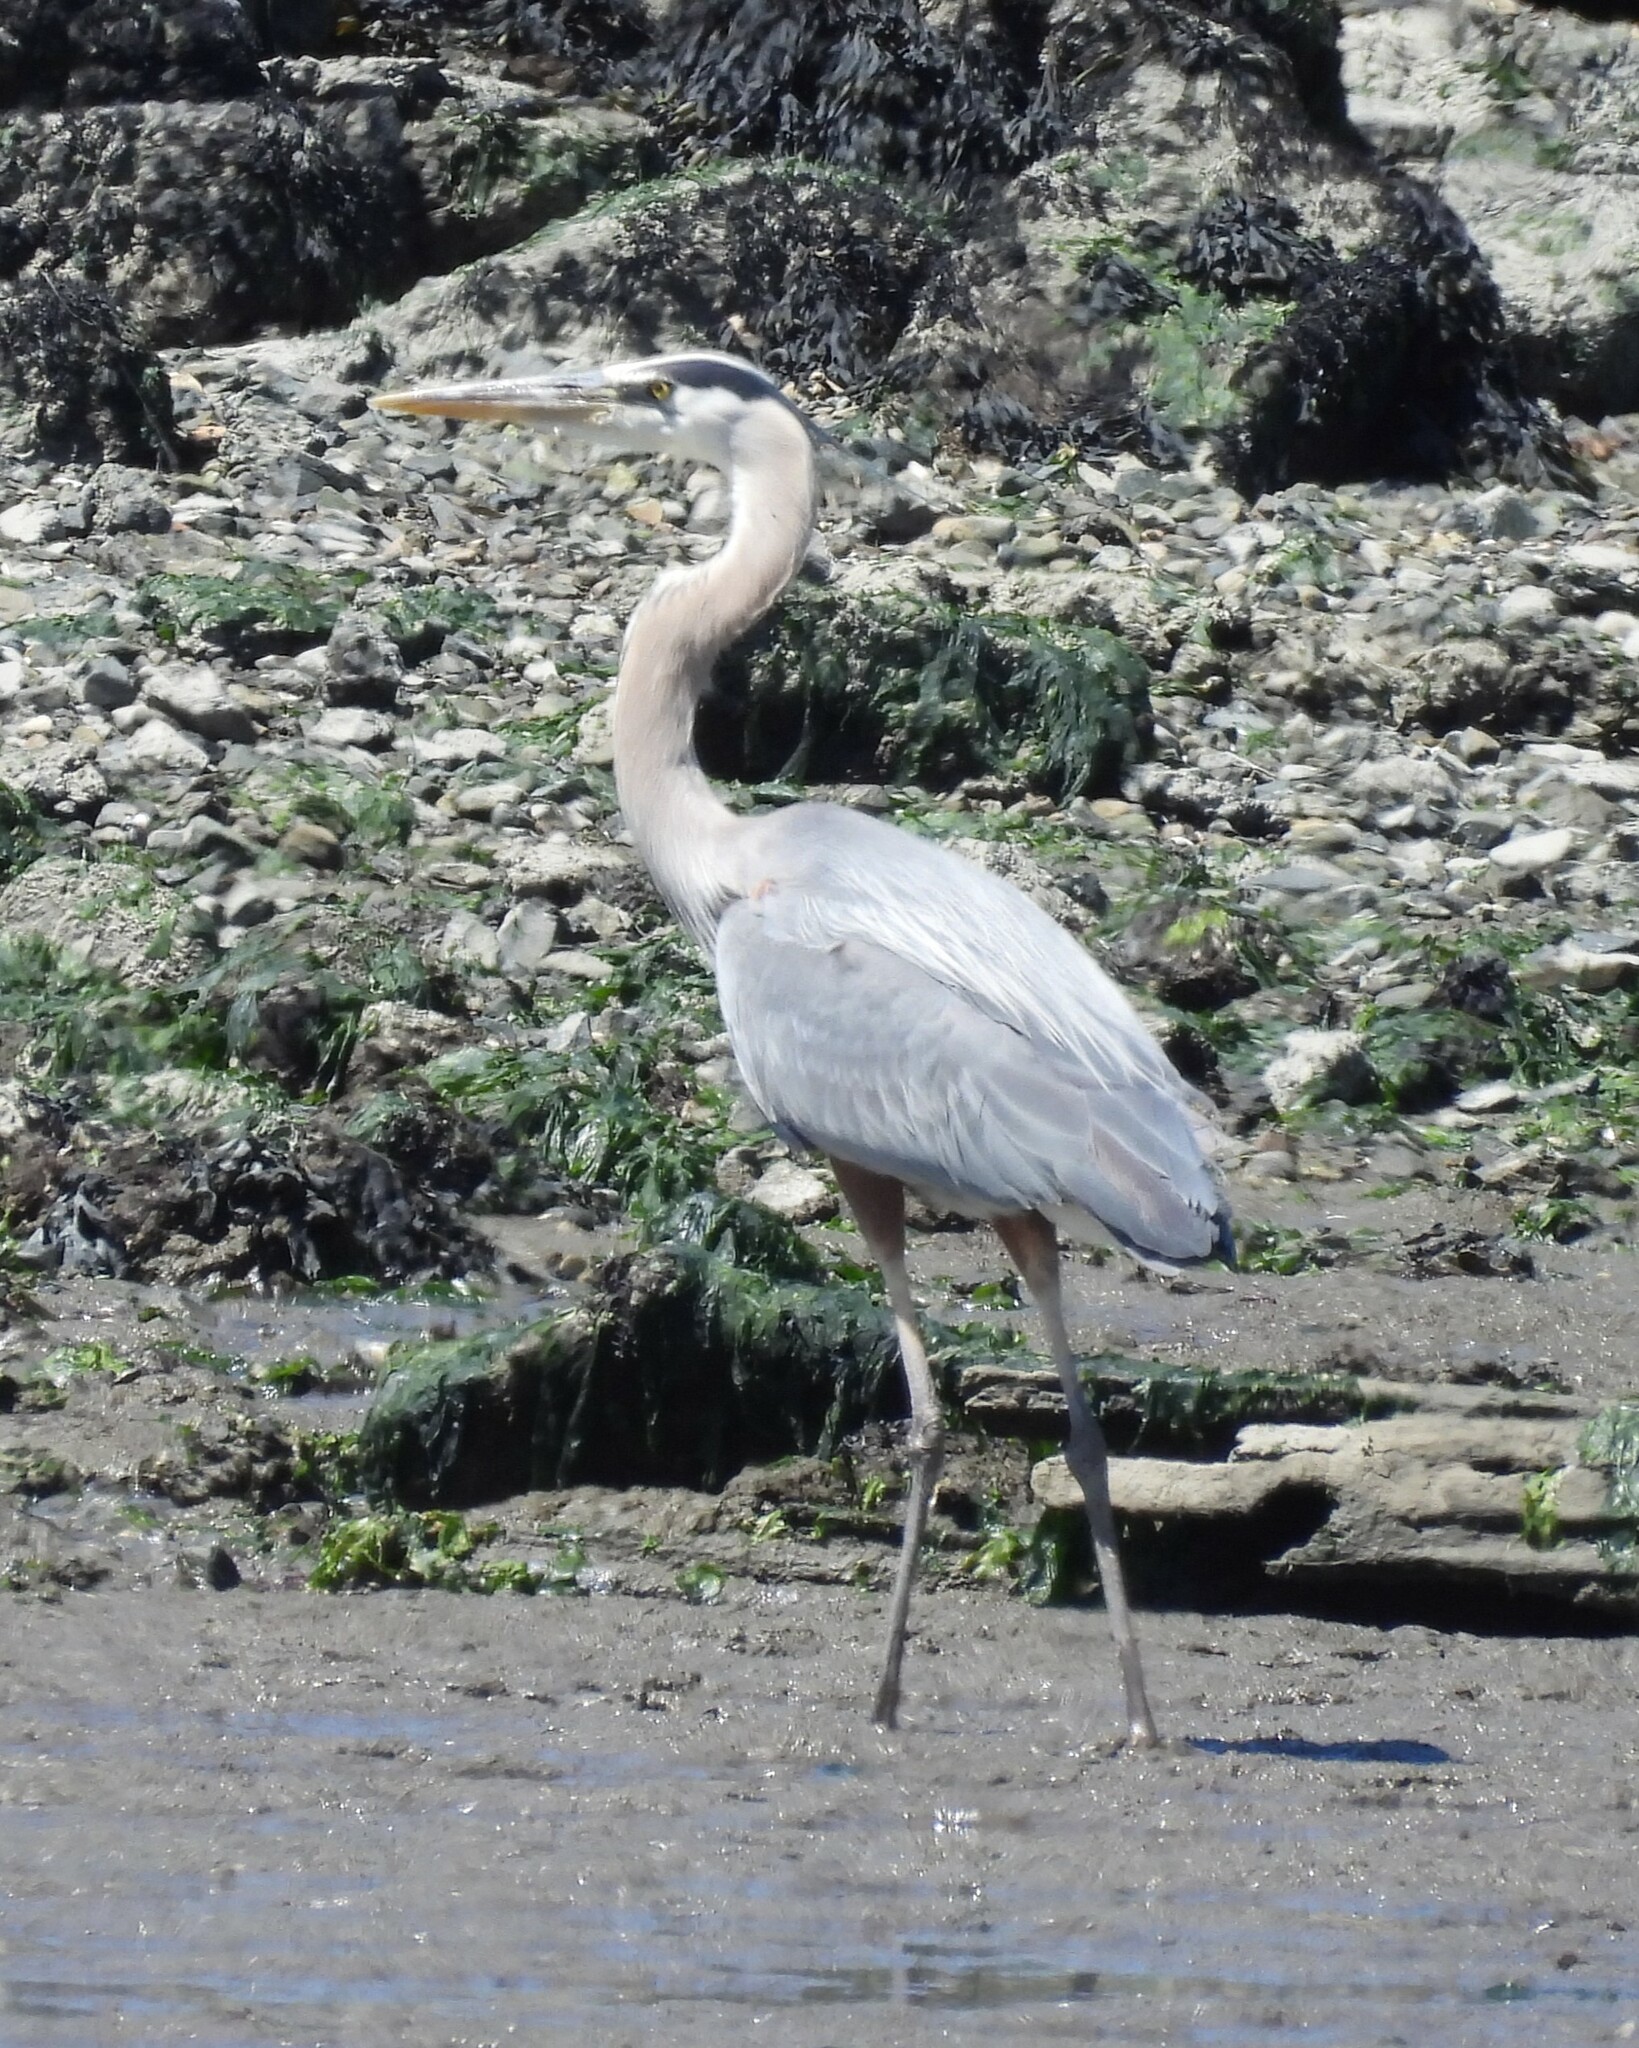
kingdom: Animalia
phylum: Chordata
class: Aves
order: Pelecaniformes
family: Ardeidae
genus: Ardea
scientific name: Ardea herodias
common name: Great blue heron
